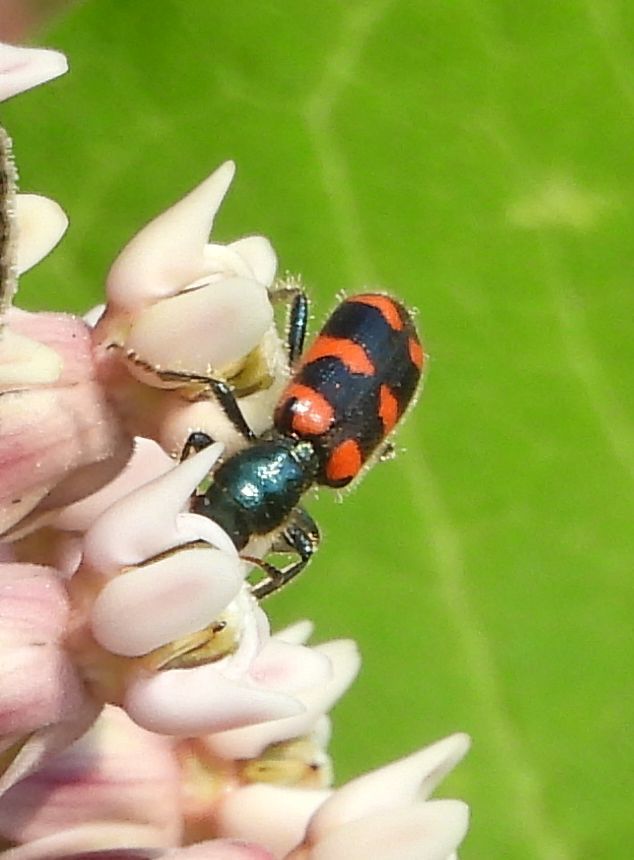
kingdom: Animalia
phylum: Arthropoda
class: Insecta
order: Coleoptera
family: Cleridae
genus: Trichodes
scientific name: Trichodes nutalli
